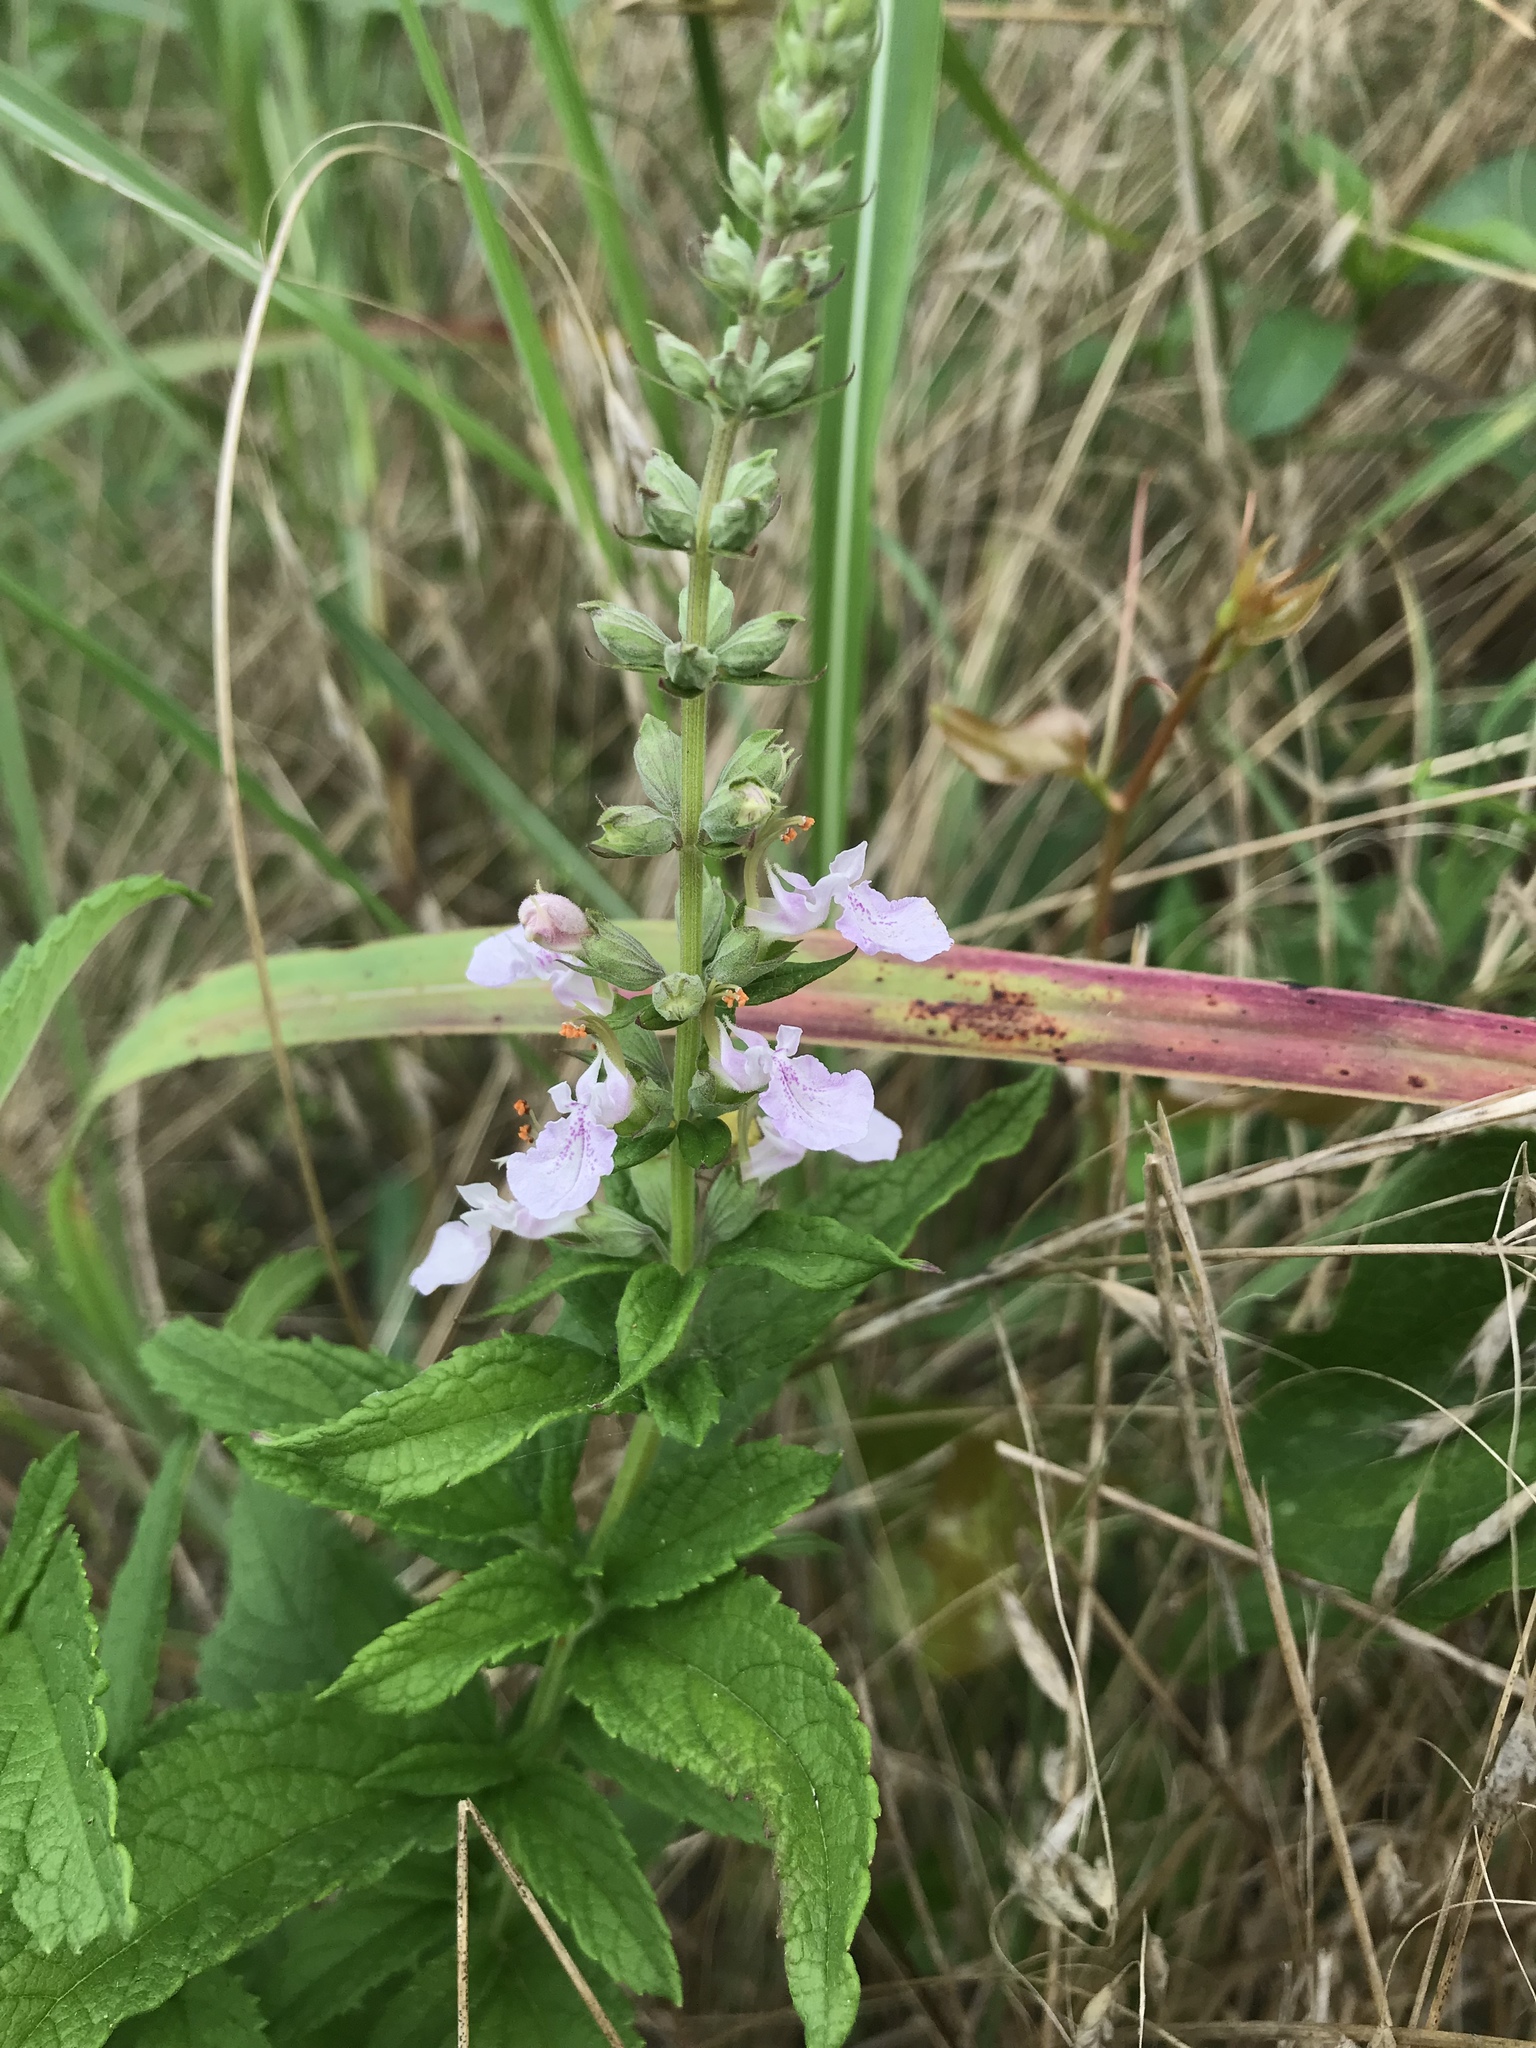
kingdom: Plantae
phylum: Tracheophyta
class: Magnoliopsida
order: Lamiales
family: Lamiaceae
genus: Teucrium
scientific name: Teucrium canadense
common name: American germander
